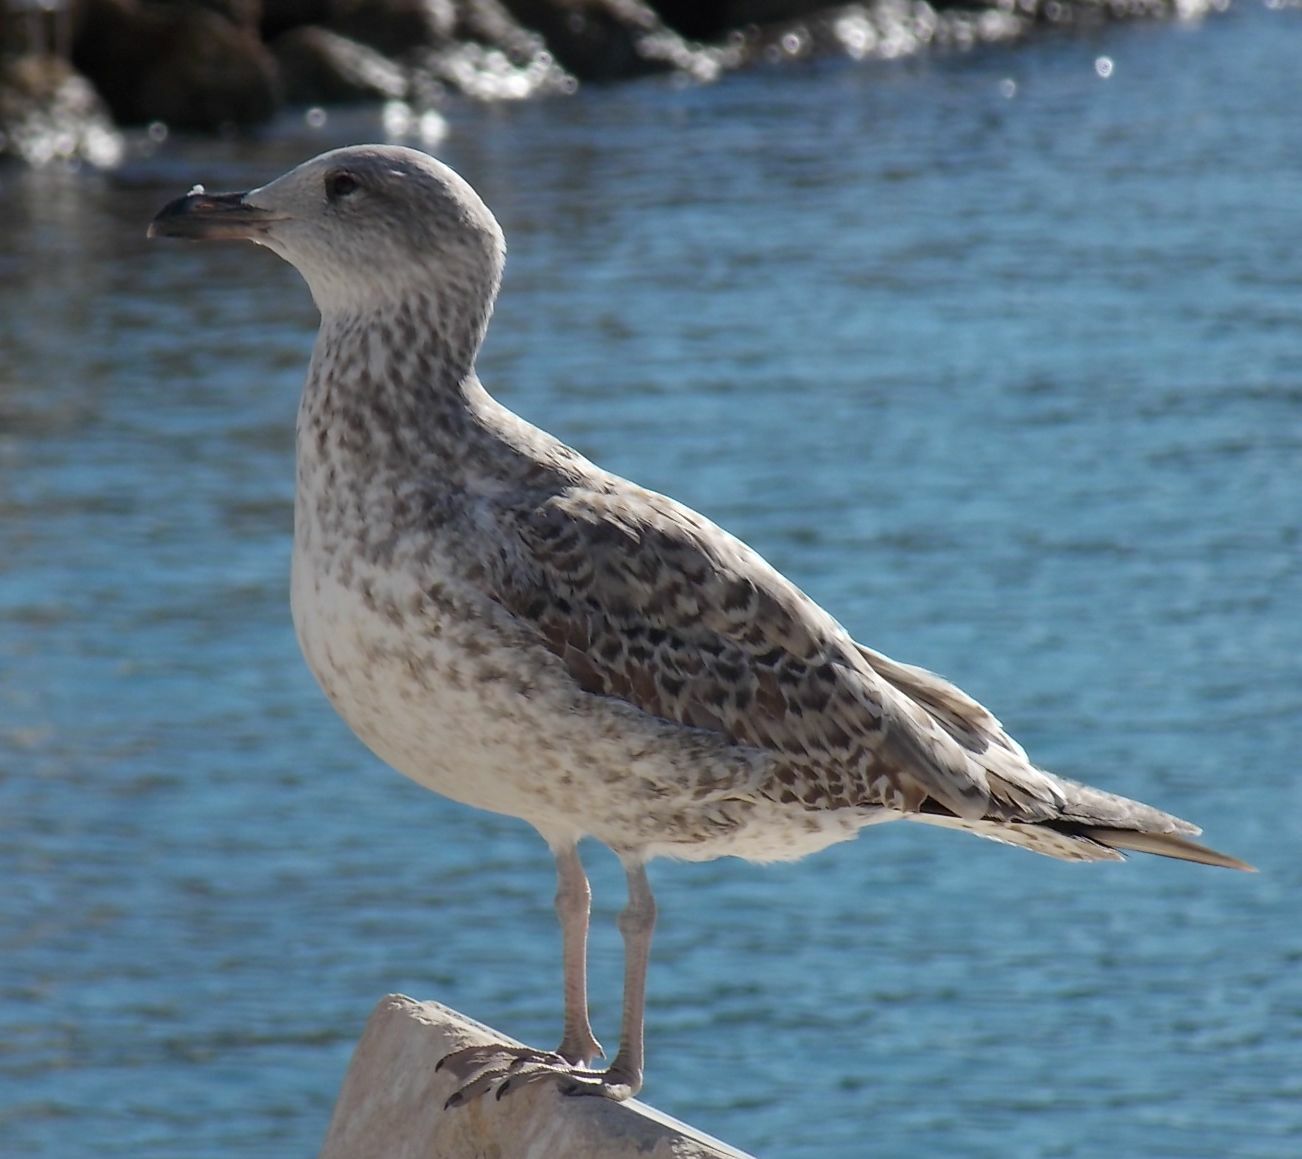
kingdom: Animalia
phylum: Chordata
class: Aves
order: Charadriiformes
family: Laridae
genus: Larus
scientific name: Larus michahellis
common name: Yellow-legged gull
